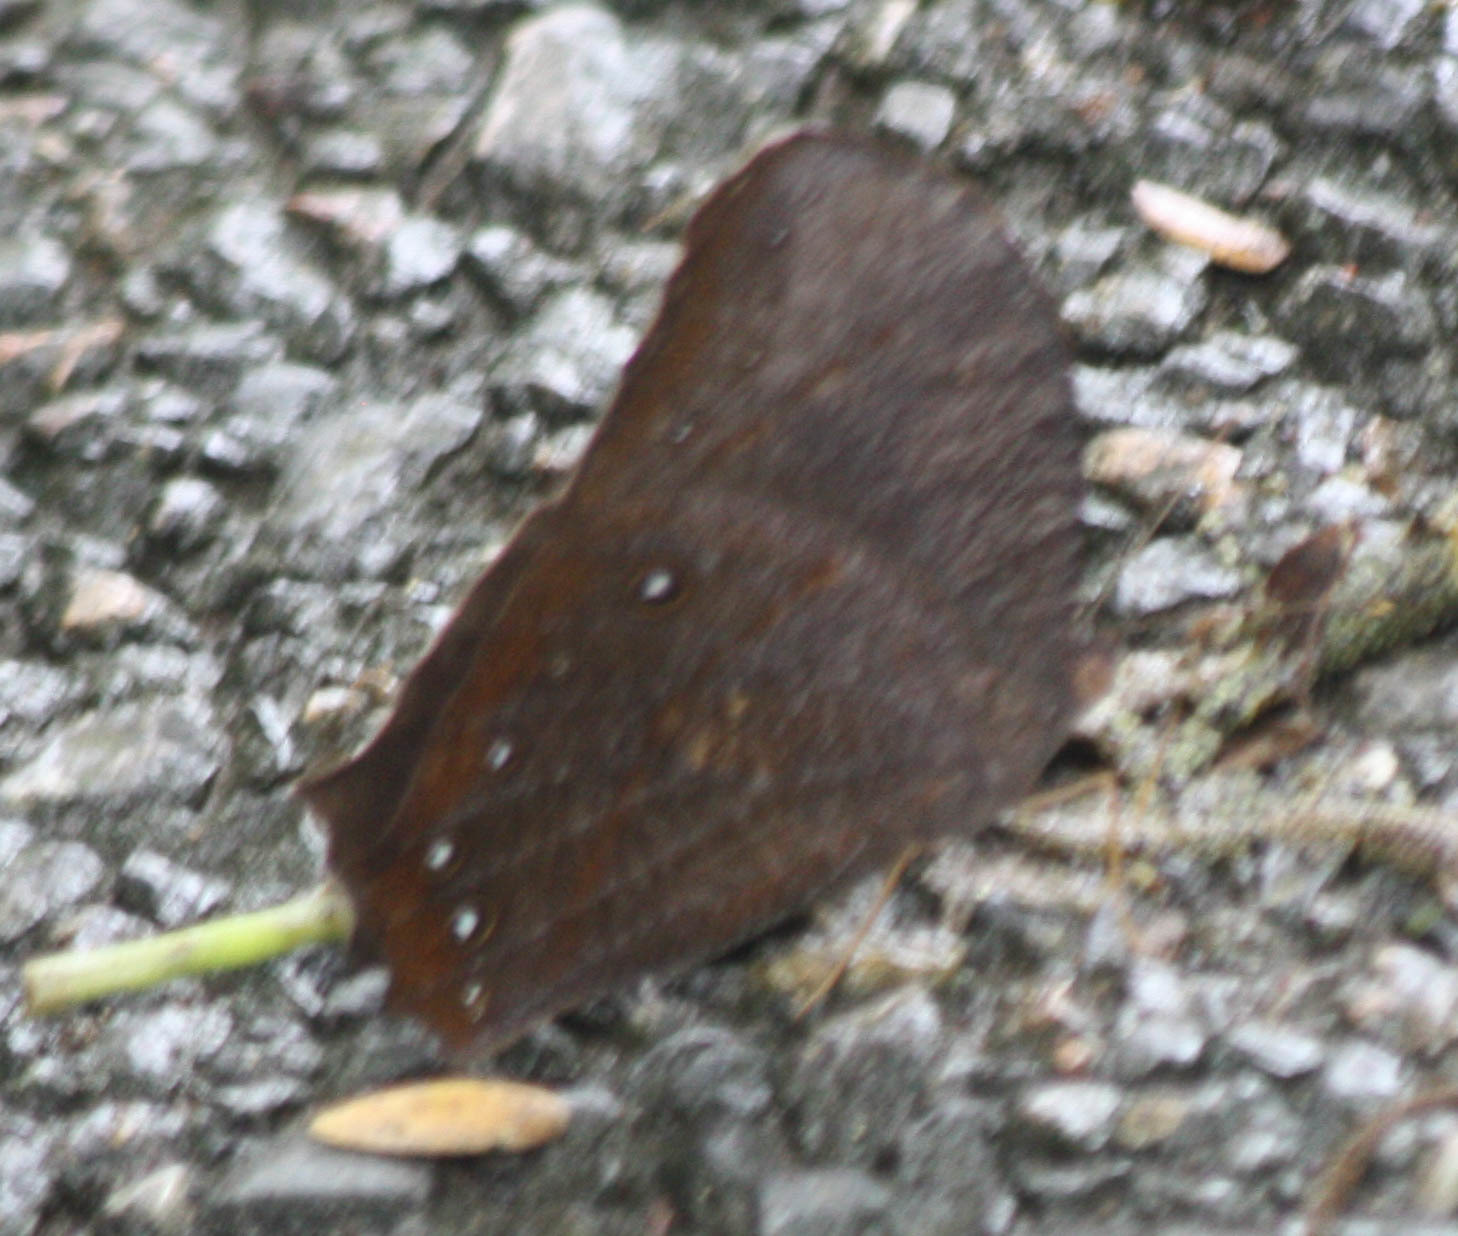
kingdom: Animalia
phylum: Arthropoda
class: Insecta
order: Lepidoptera
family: Nymphalidae
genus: Melanitis
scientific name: Melanitis phedima
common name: Dark evening brown
